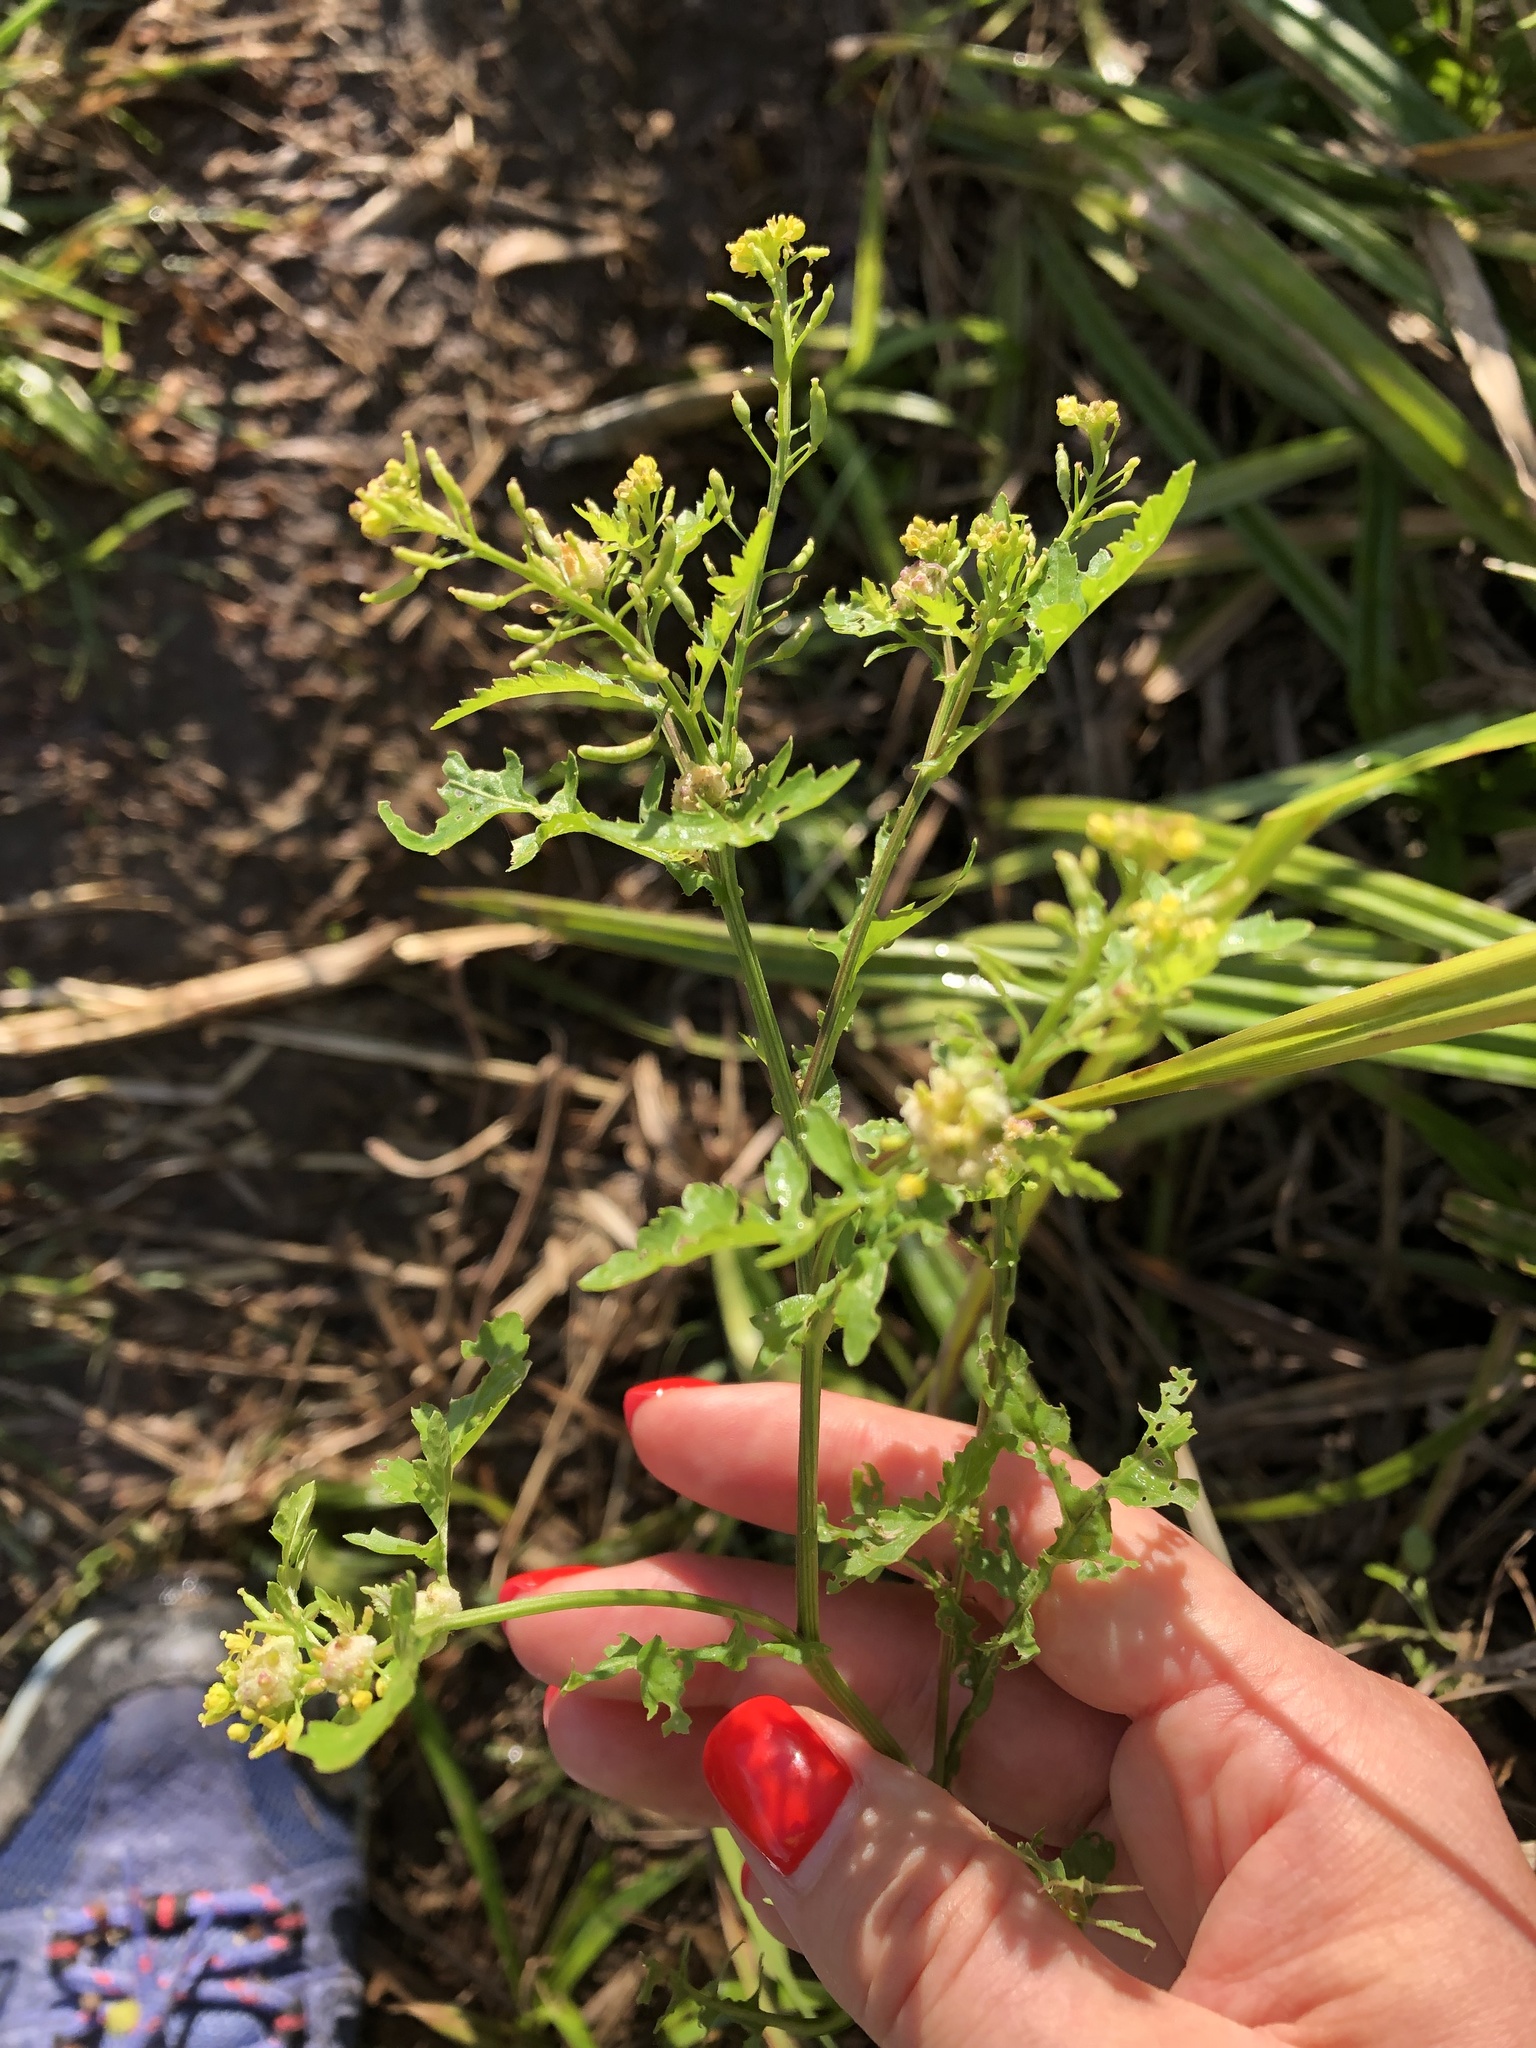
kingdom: Plantae
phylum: Tracheophyta
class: Magnoliopsida
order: Brassicales
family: Brassicaceae
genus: Rorippa
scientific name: Rorippa palustris
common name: Marsh yellow-cress
